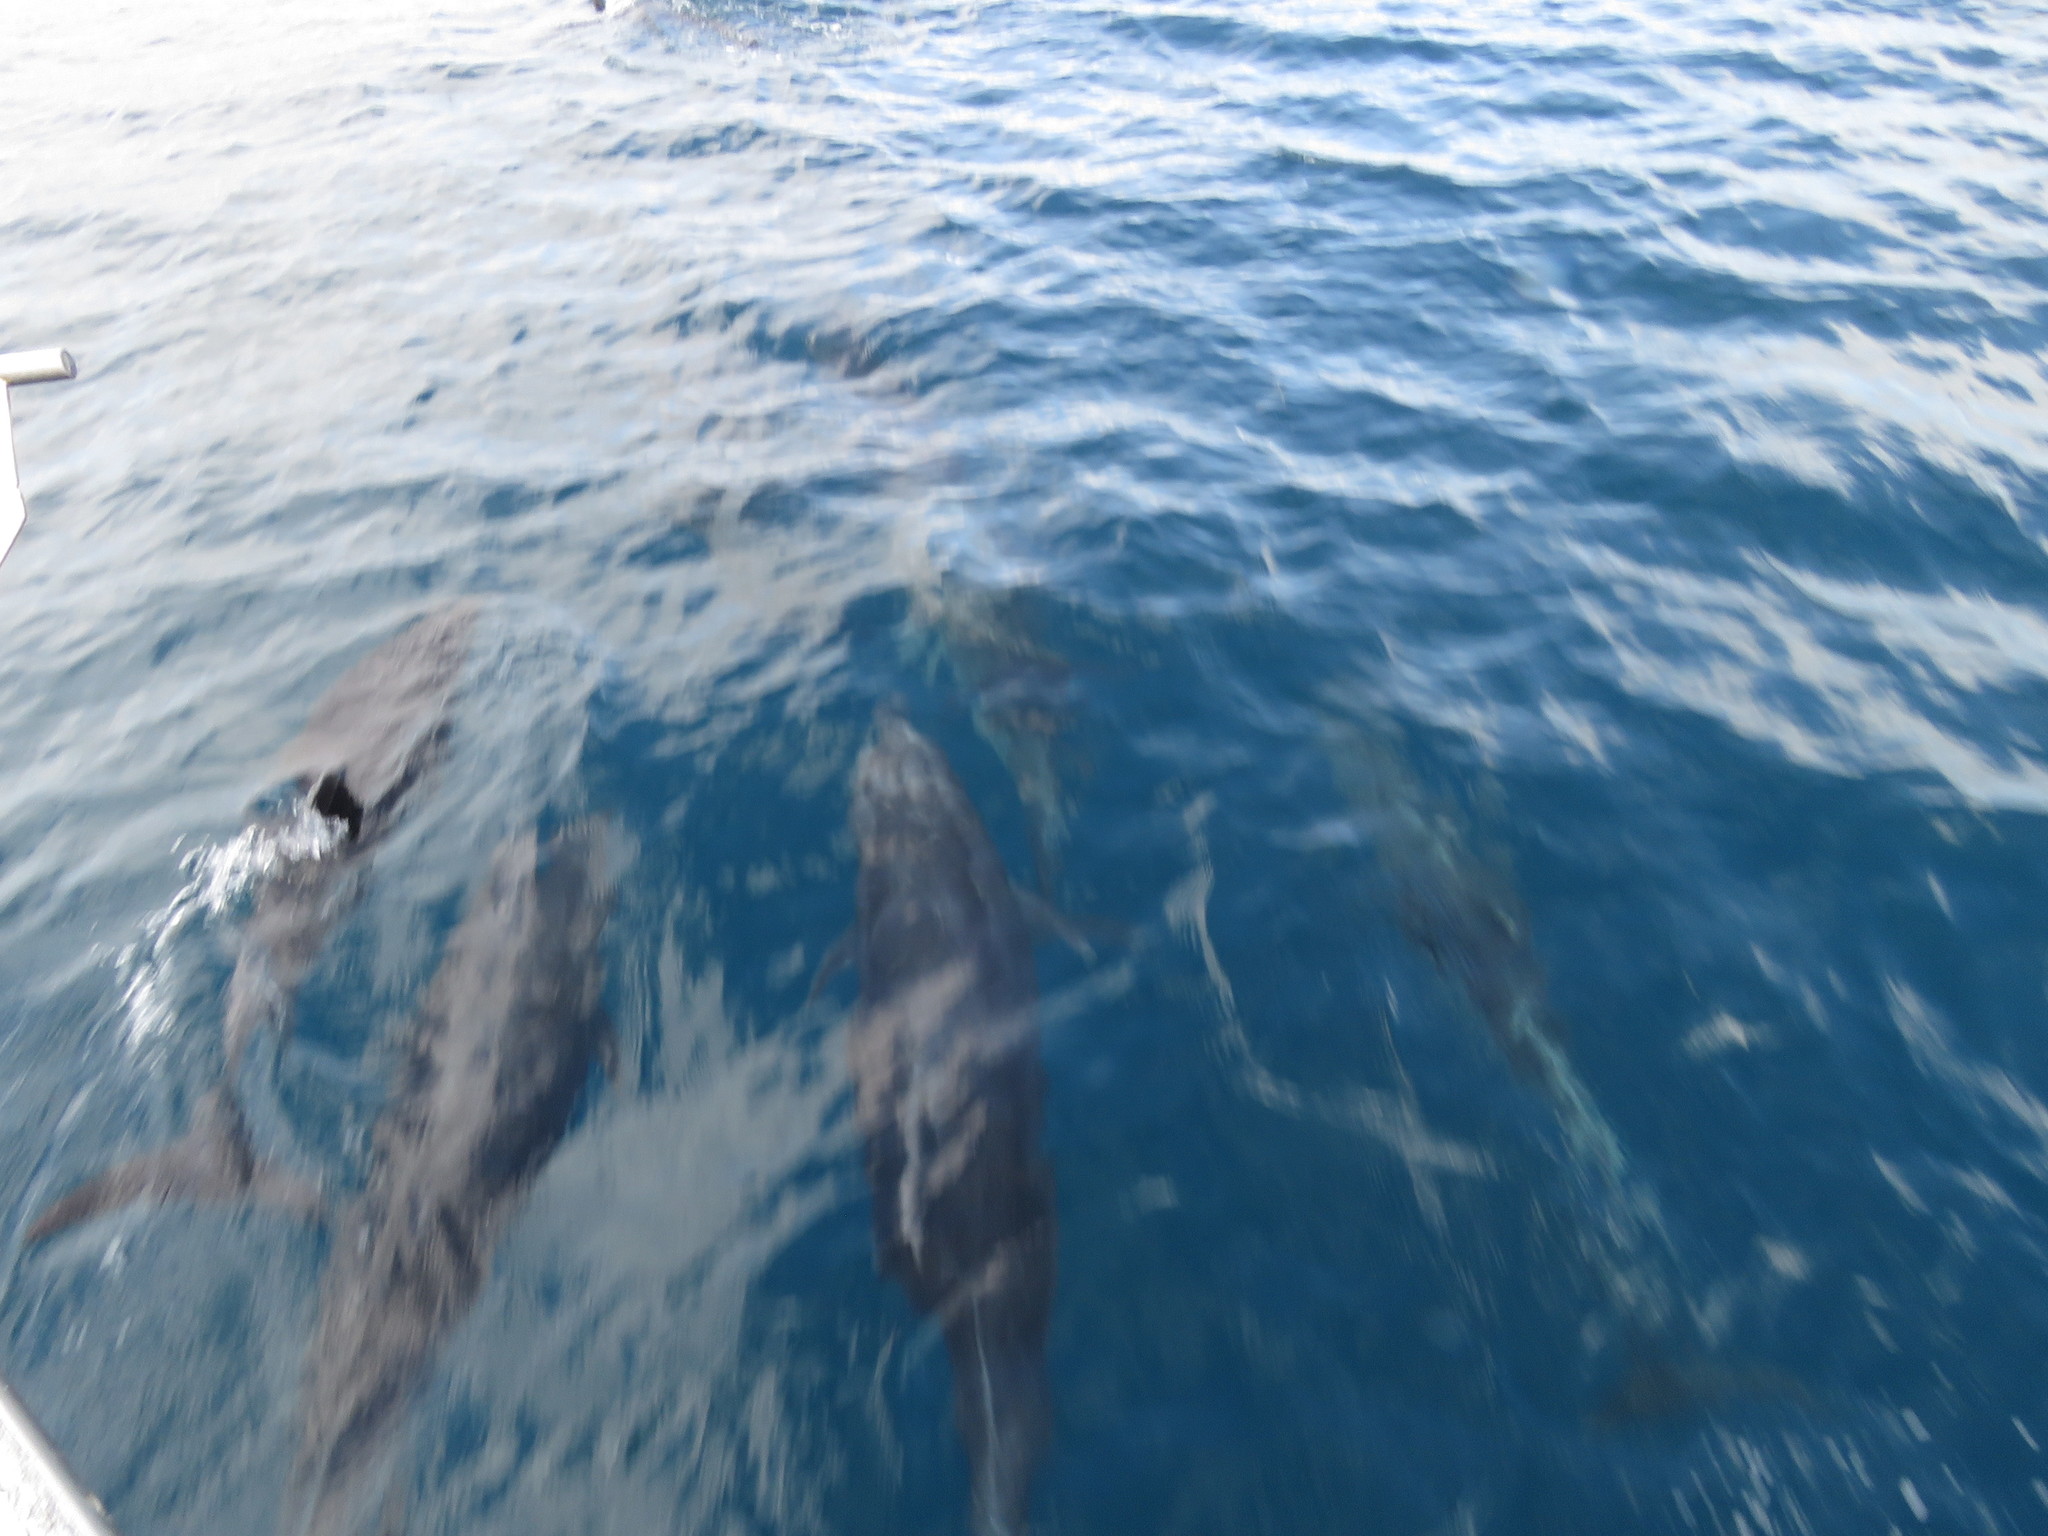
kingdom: Animalia
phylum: Chordata
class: Mammalia
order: Cetacea
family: Delphinidae
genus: Tursiops
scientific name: Tursiops truncatus
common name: Bottlenose dolphin
